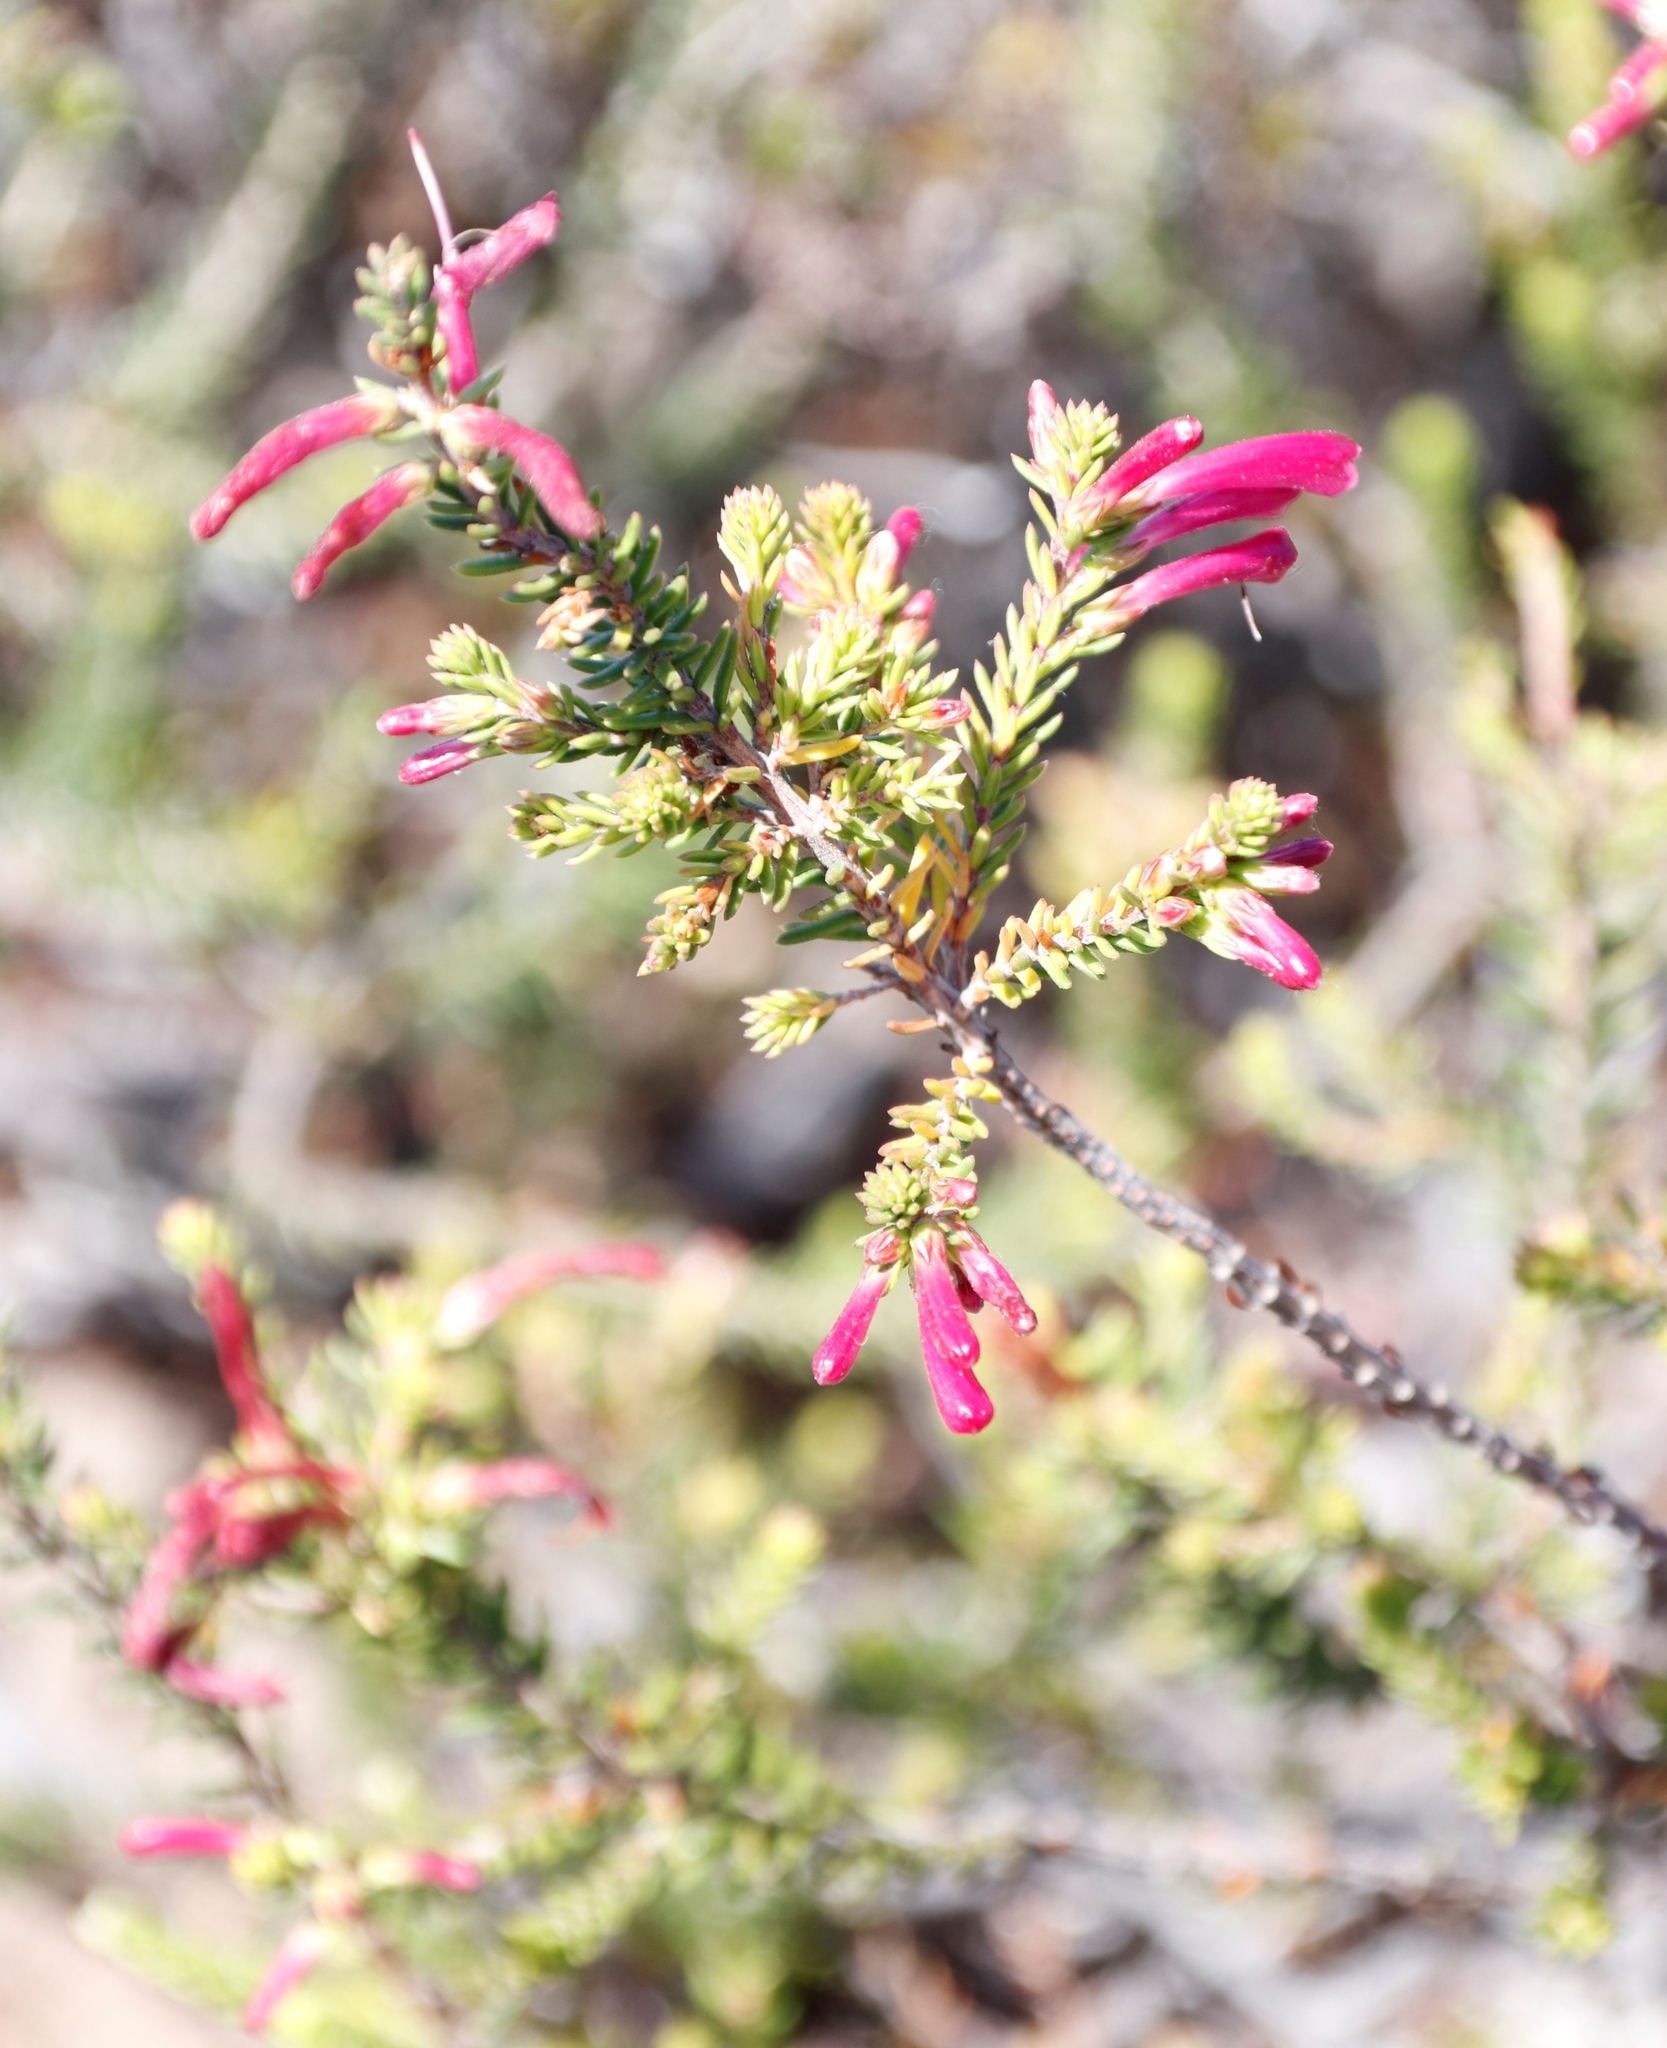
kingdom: Plantae
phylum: Tracheophyta
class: Magnoliopsida
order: Ericales
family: Ericaceae
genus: Erica
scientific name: Erica abietina
